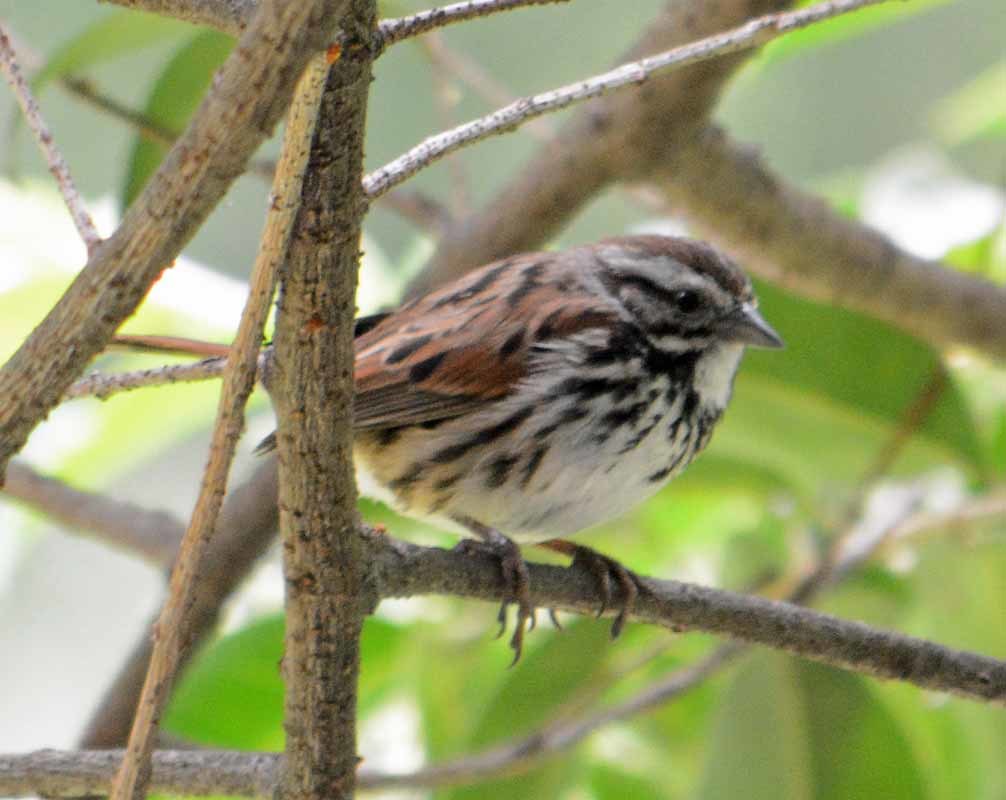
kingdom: Animalia
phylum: Chordata
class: Aves
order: Passeriformes
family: Passerellidae
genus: Melospiza
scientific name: Melospiza melodia
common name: Song sparrow
